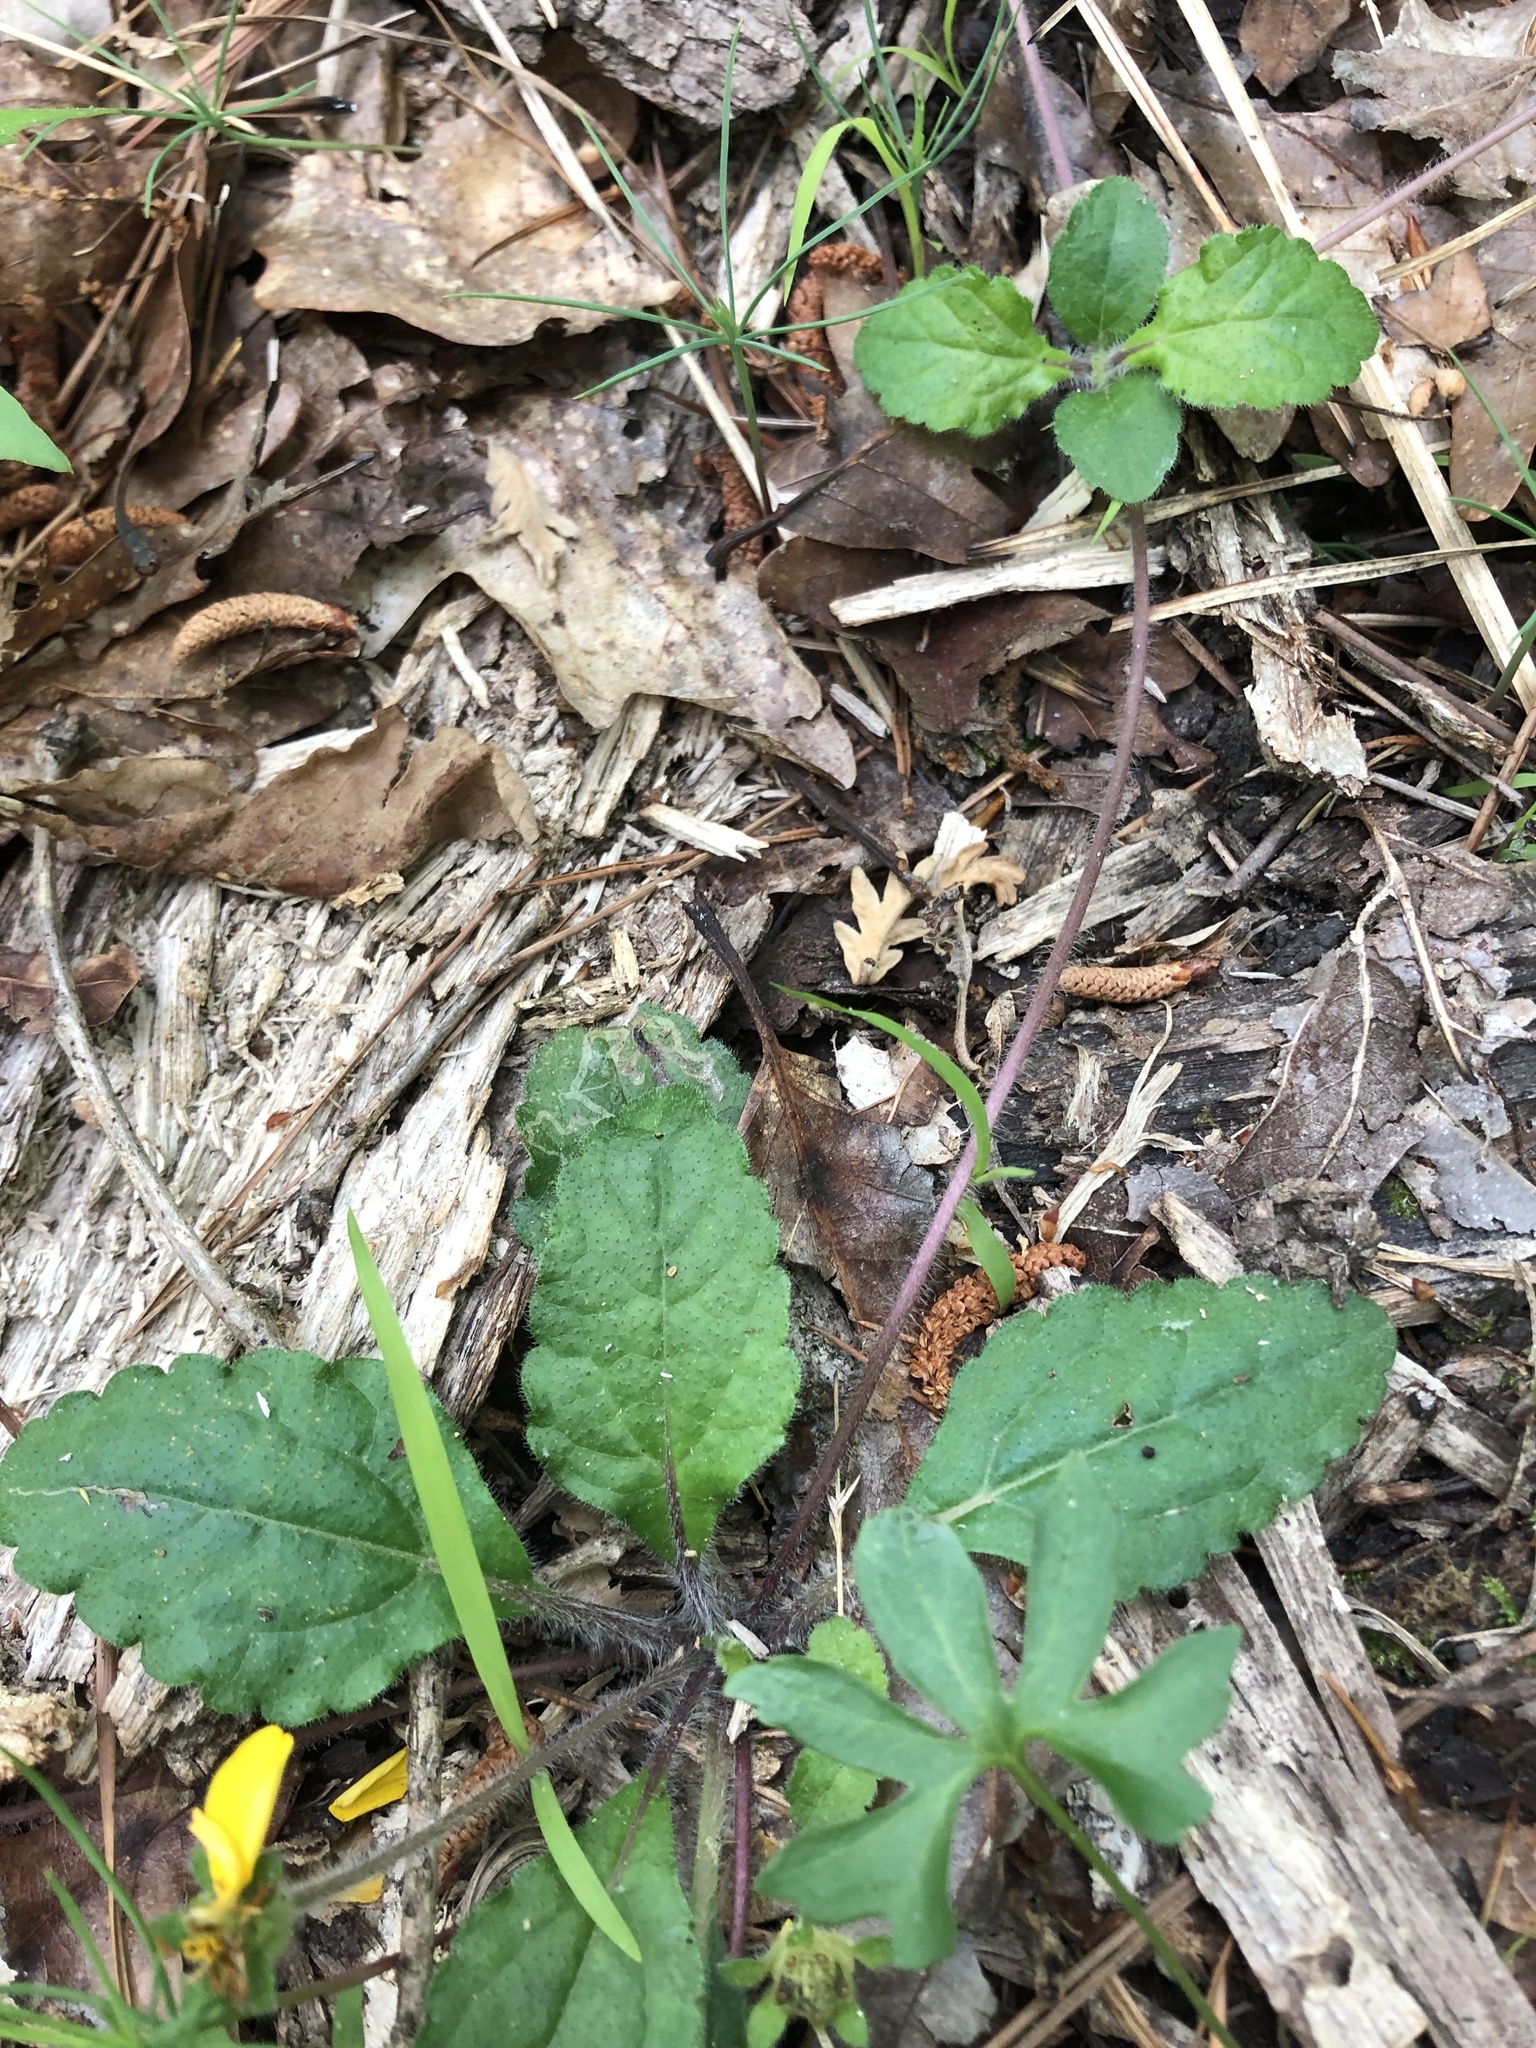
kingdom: Plantae
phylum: Tracheophyta
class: Magnoliopsida
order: Asterales
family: Asteraceae
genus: Chrysogonum
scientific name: Chrysogonum australe
